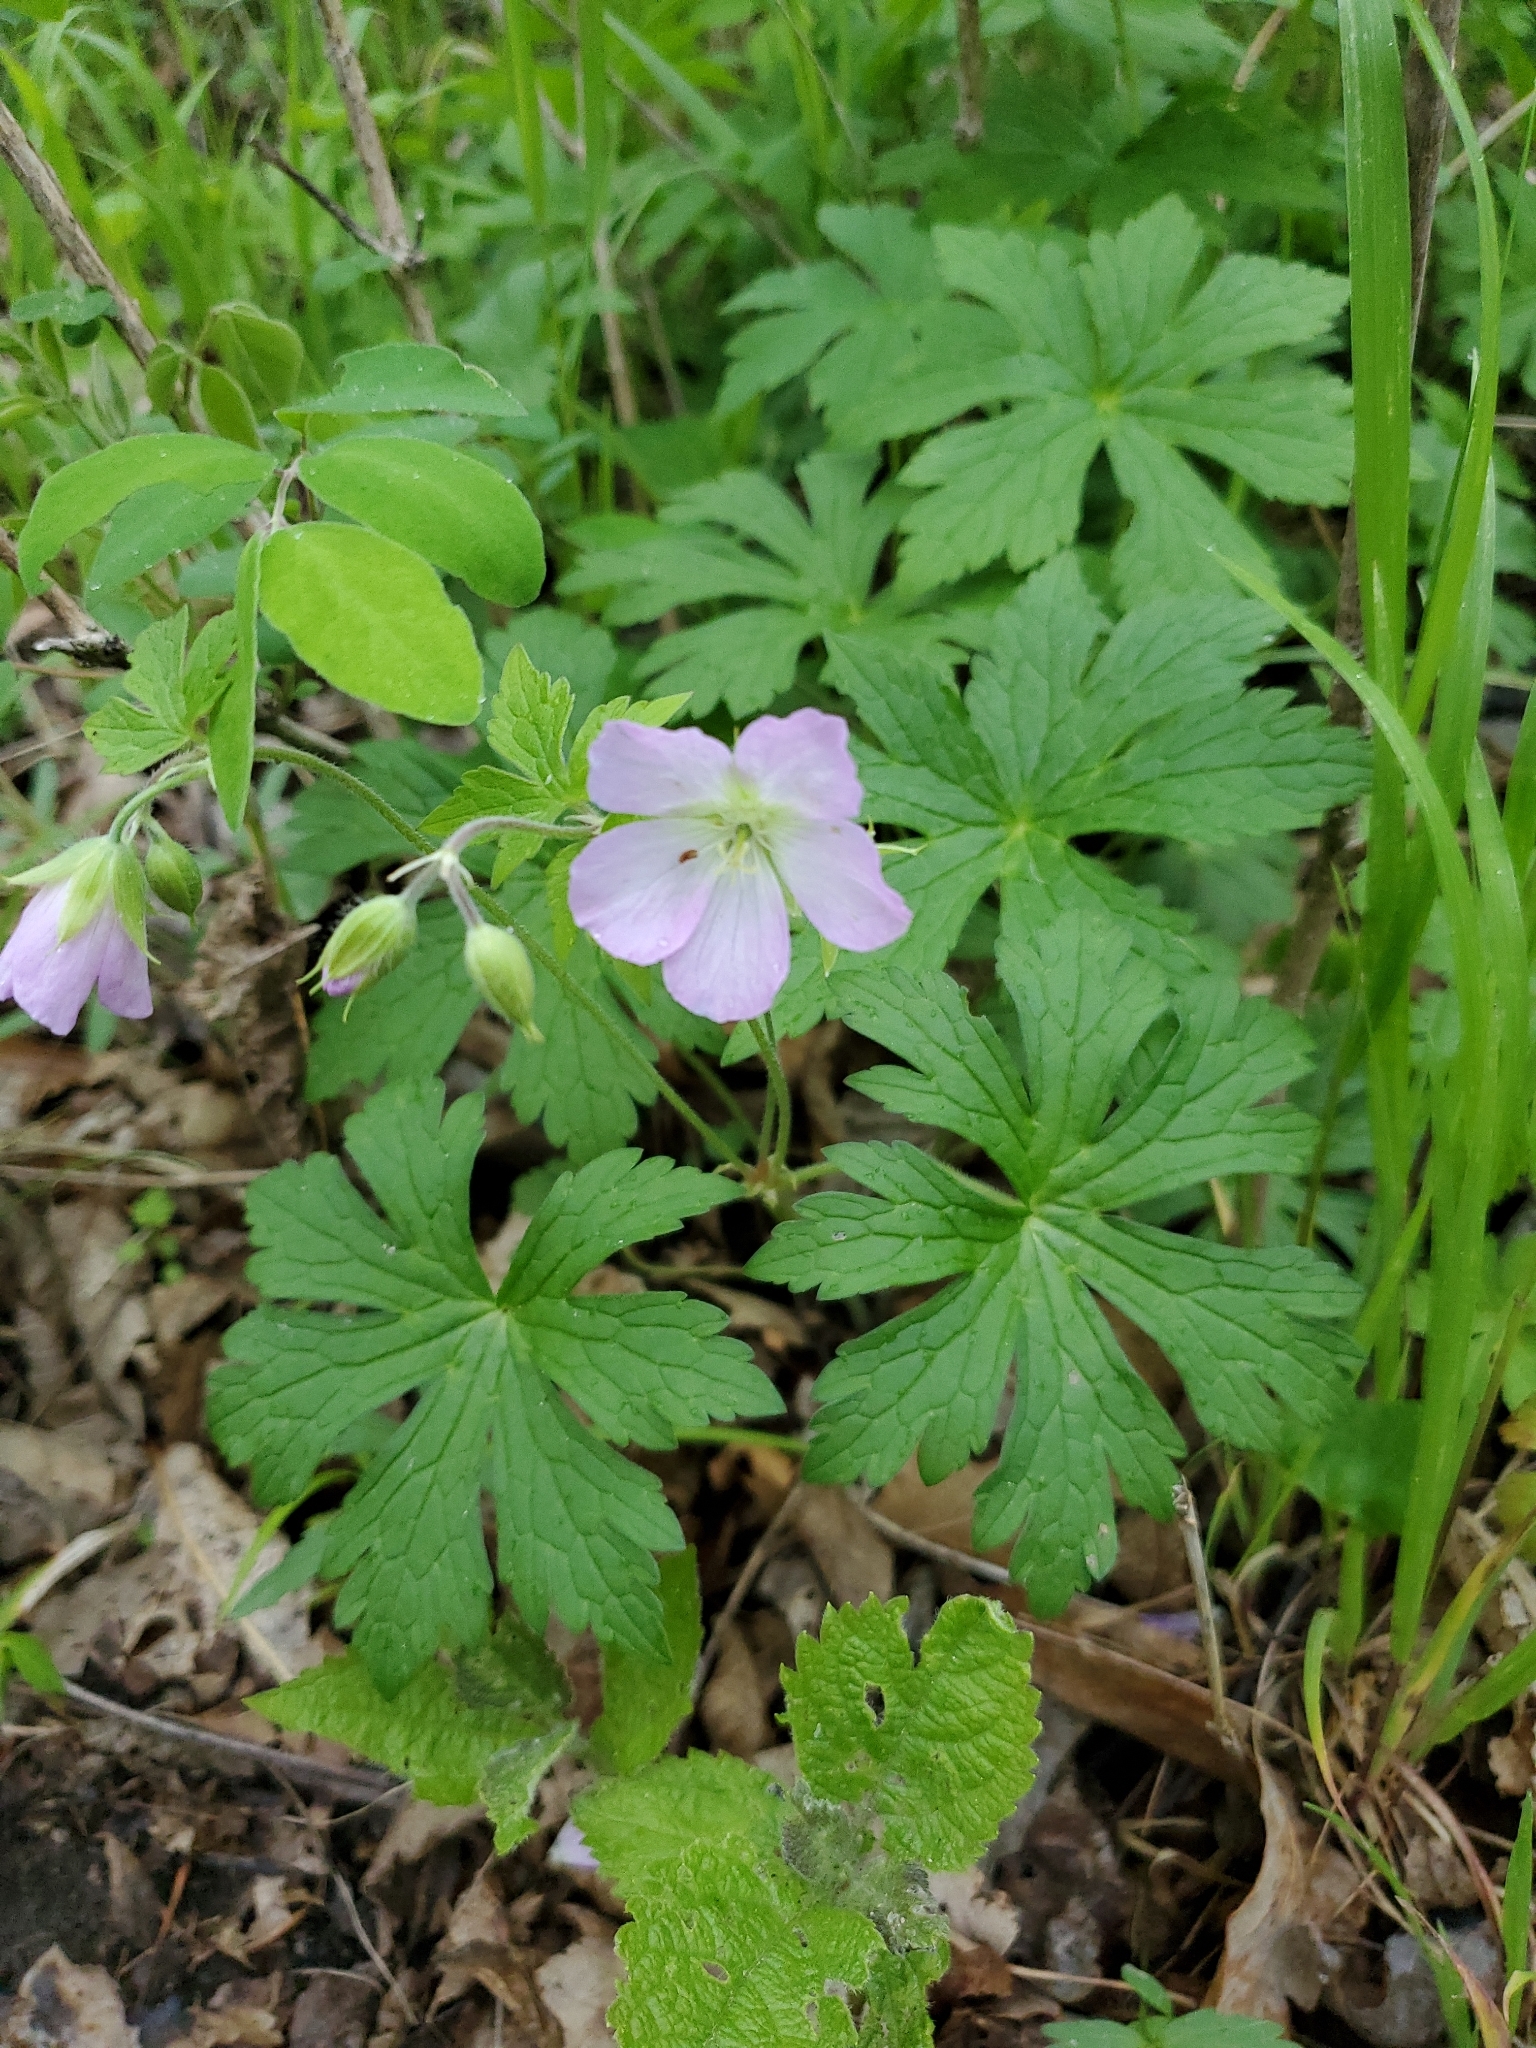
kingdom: Plantae
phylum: Tracheophyta
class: Magnoliopsida
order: Geraniales
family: Geraniaceae
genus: Geranium
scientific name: Geranium maculatum
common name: Spotted geranium
